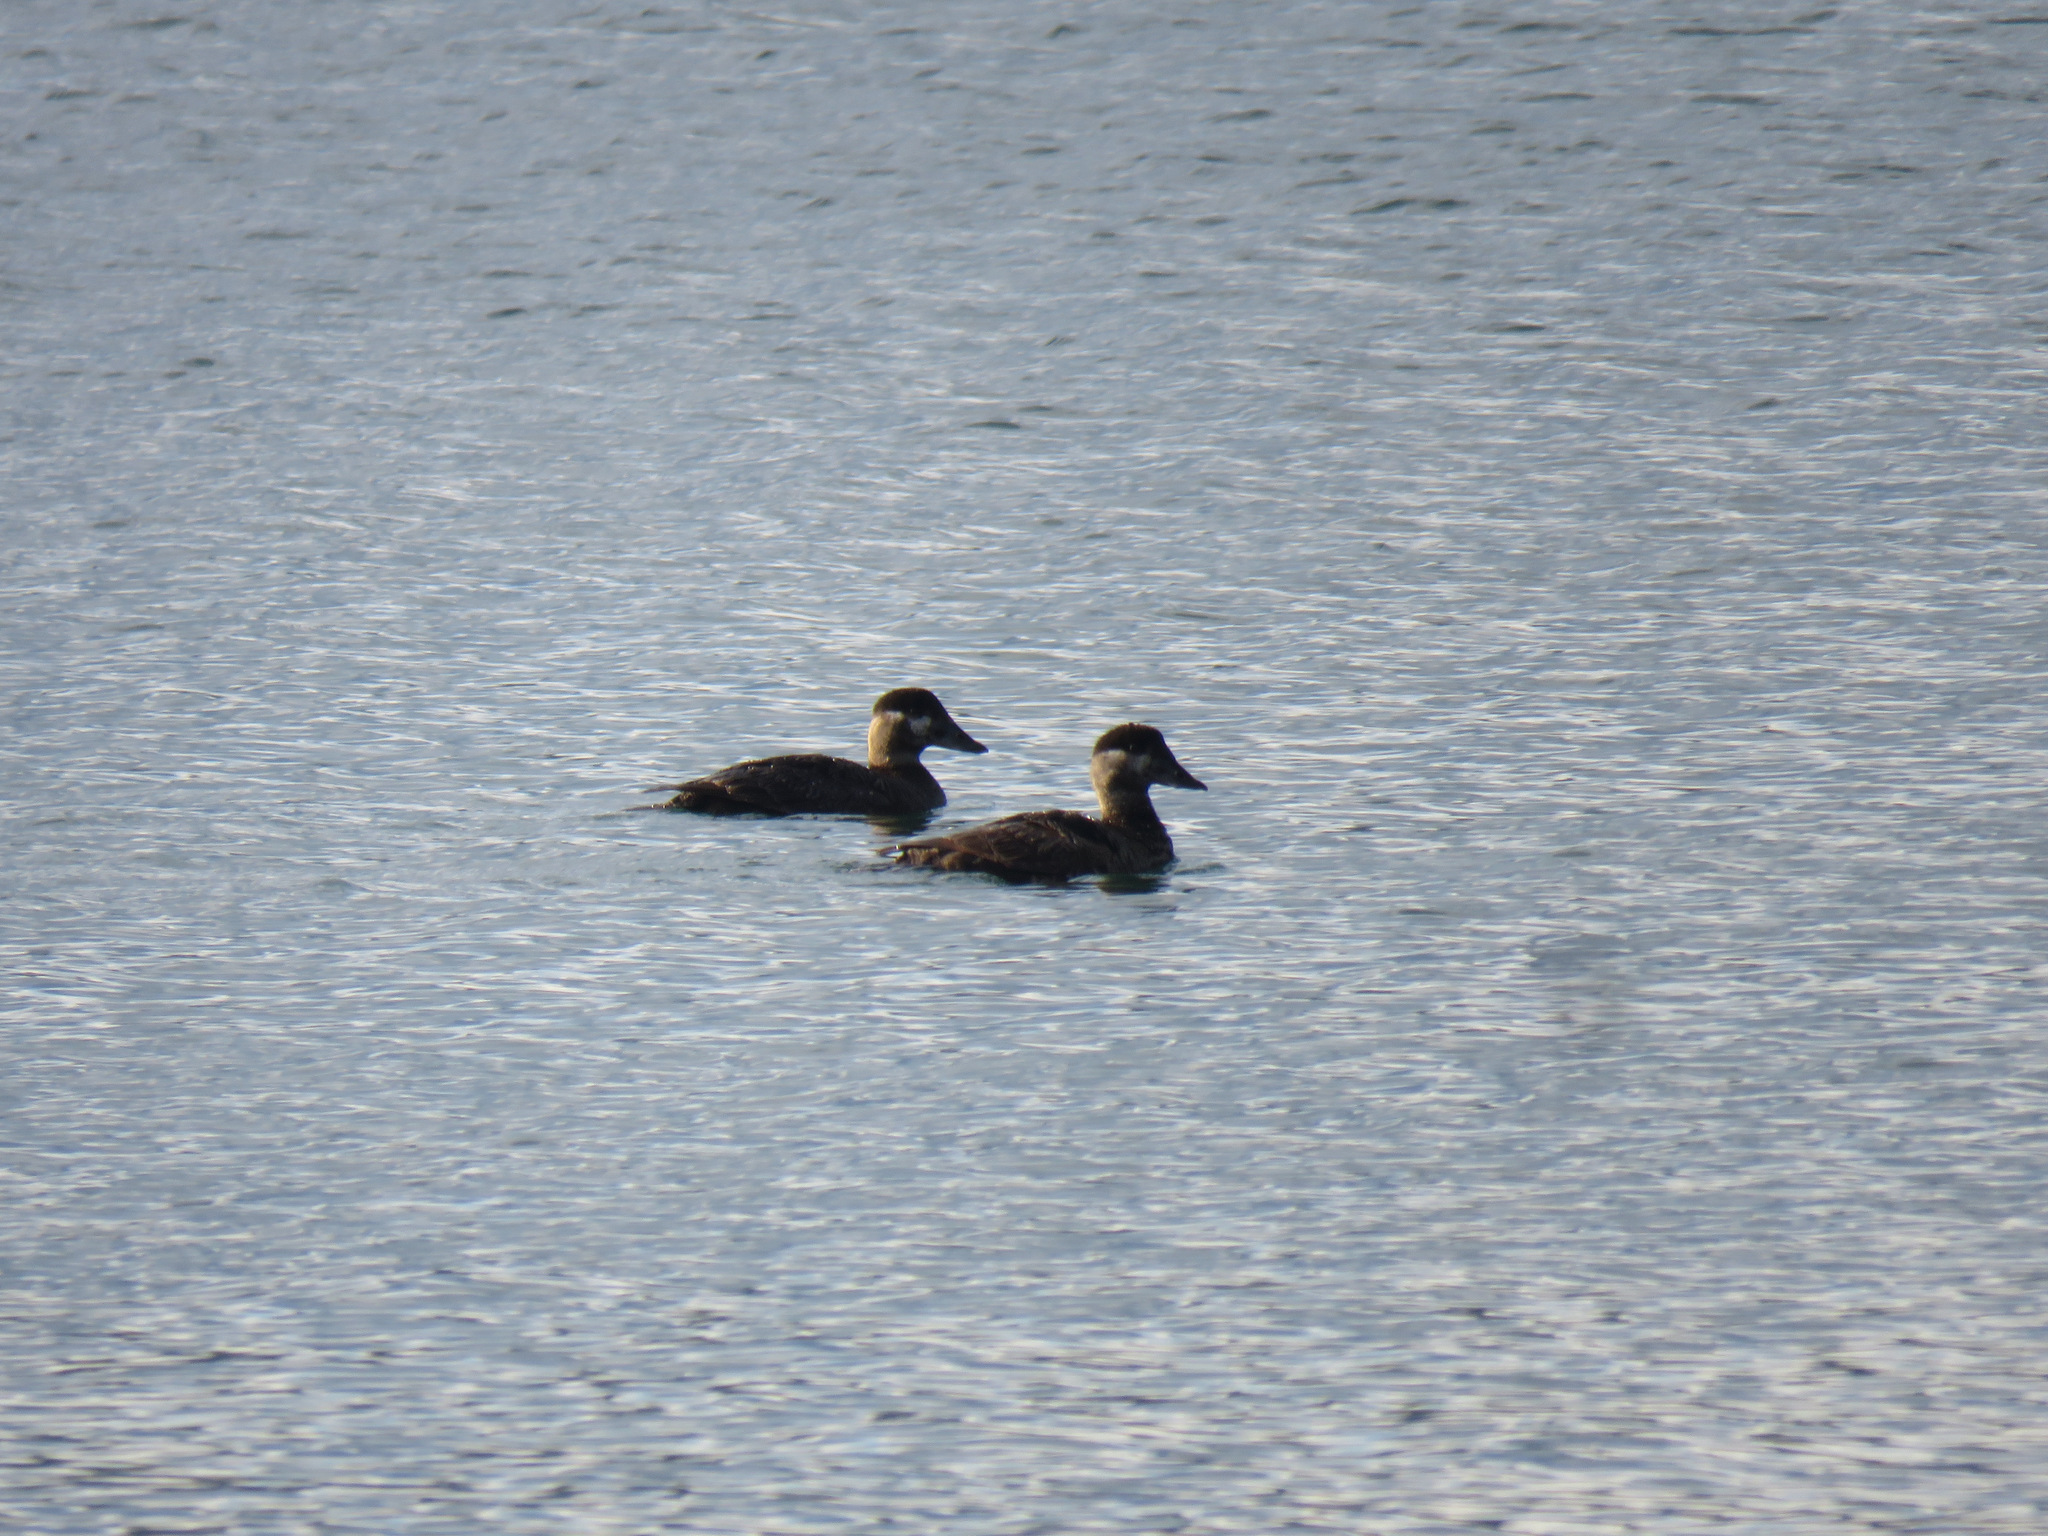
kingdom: Animalia
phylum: Chordata
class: Aves
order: Anseriformes
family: Anatidae
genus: Melanitta
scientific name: Melanitta perspicillata
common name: Surf scoter
